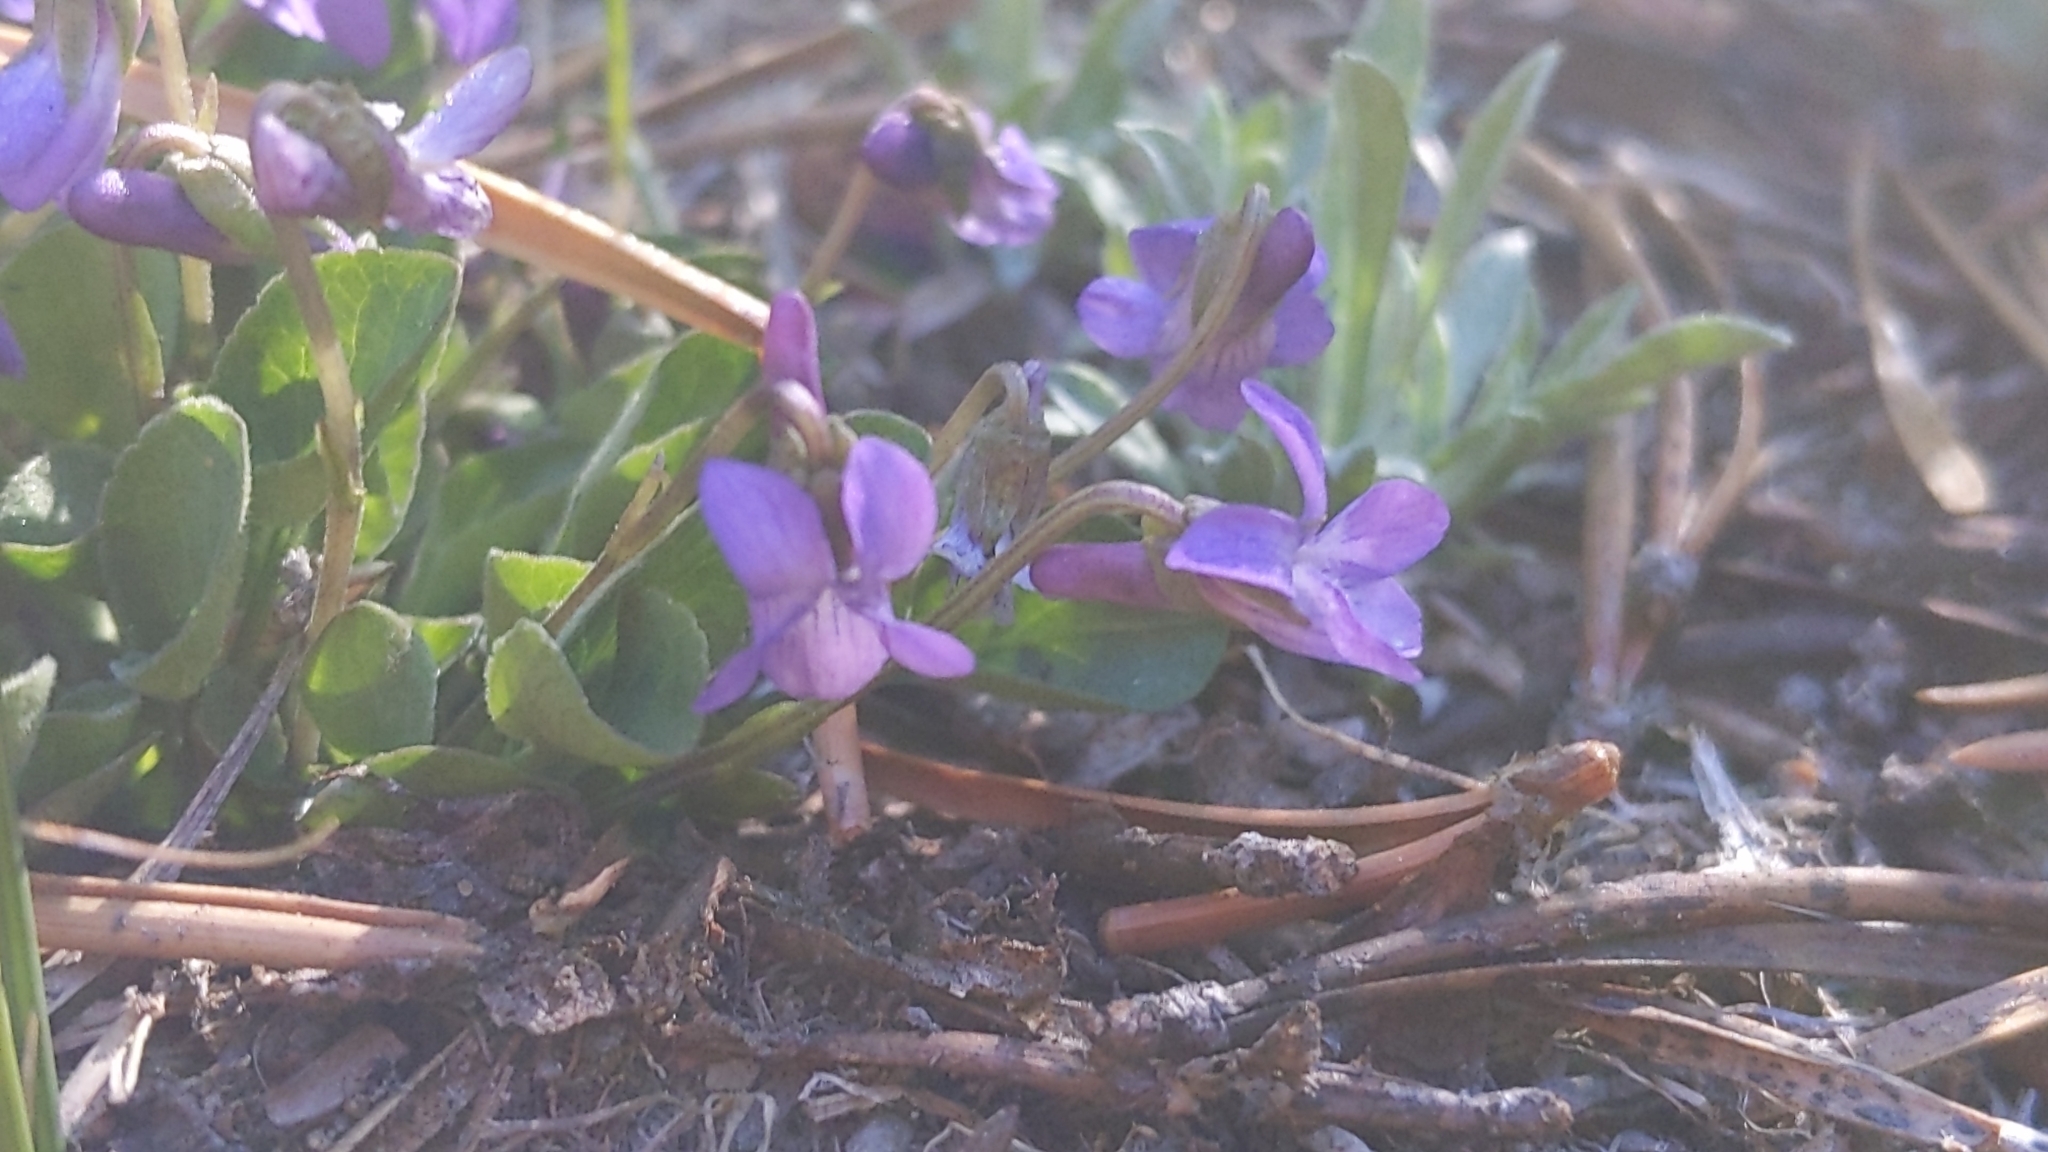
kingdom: Plantae
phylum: Tracheophyta
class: Magnoliopsida
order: Malpighiales
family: Violaceae
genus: Viola
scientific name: Viola adunca
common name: Sand violet
